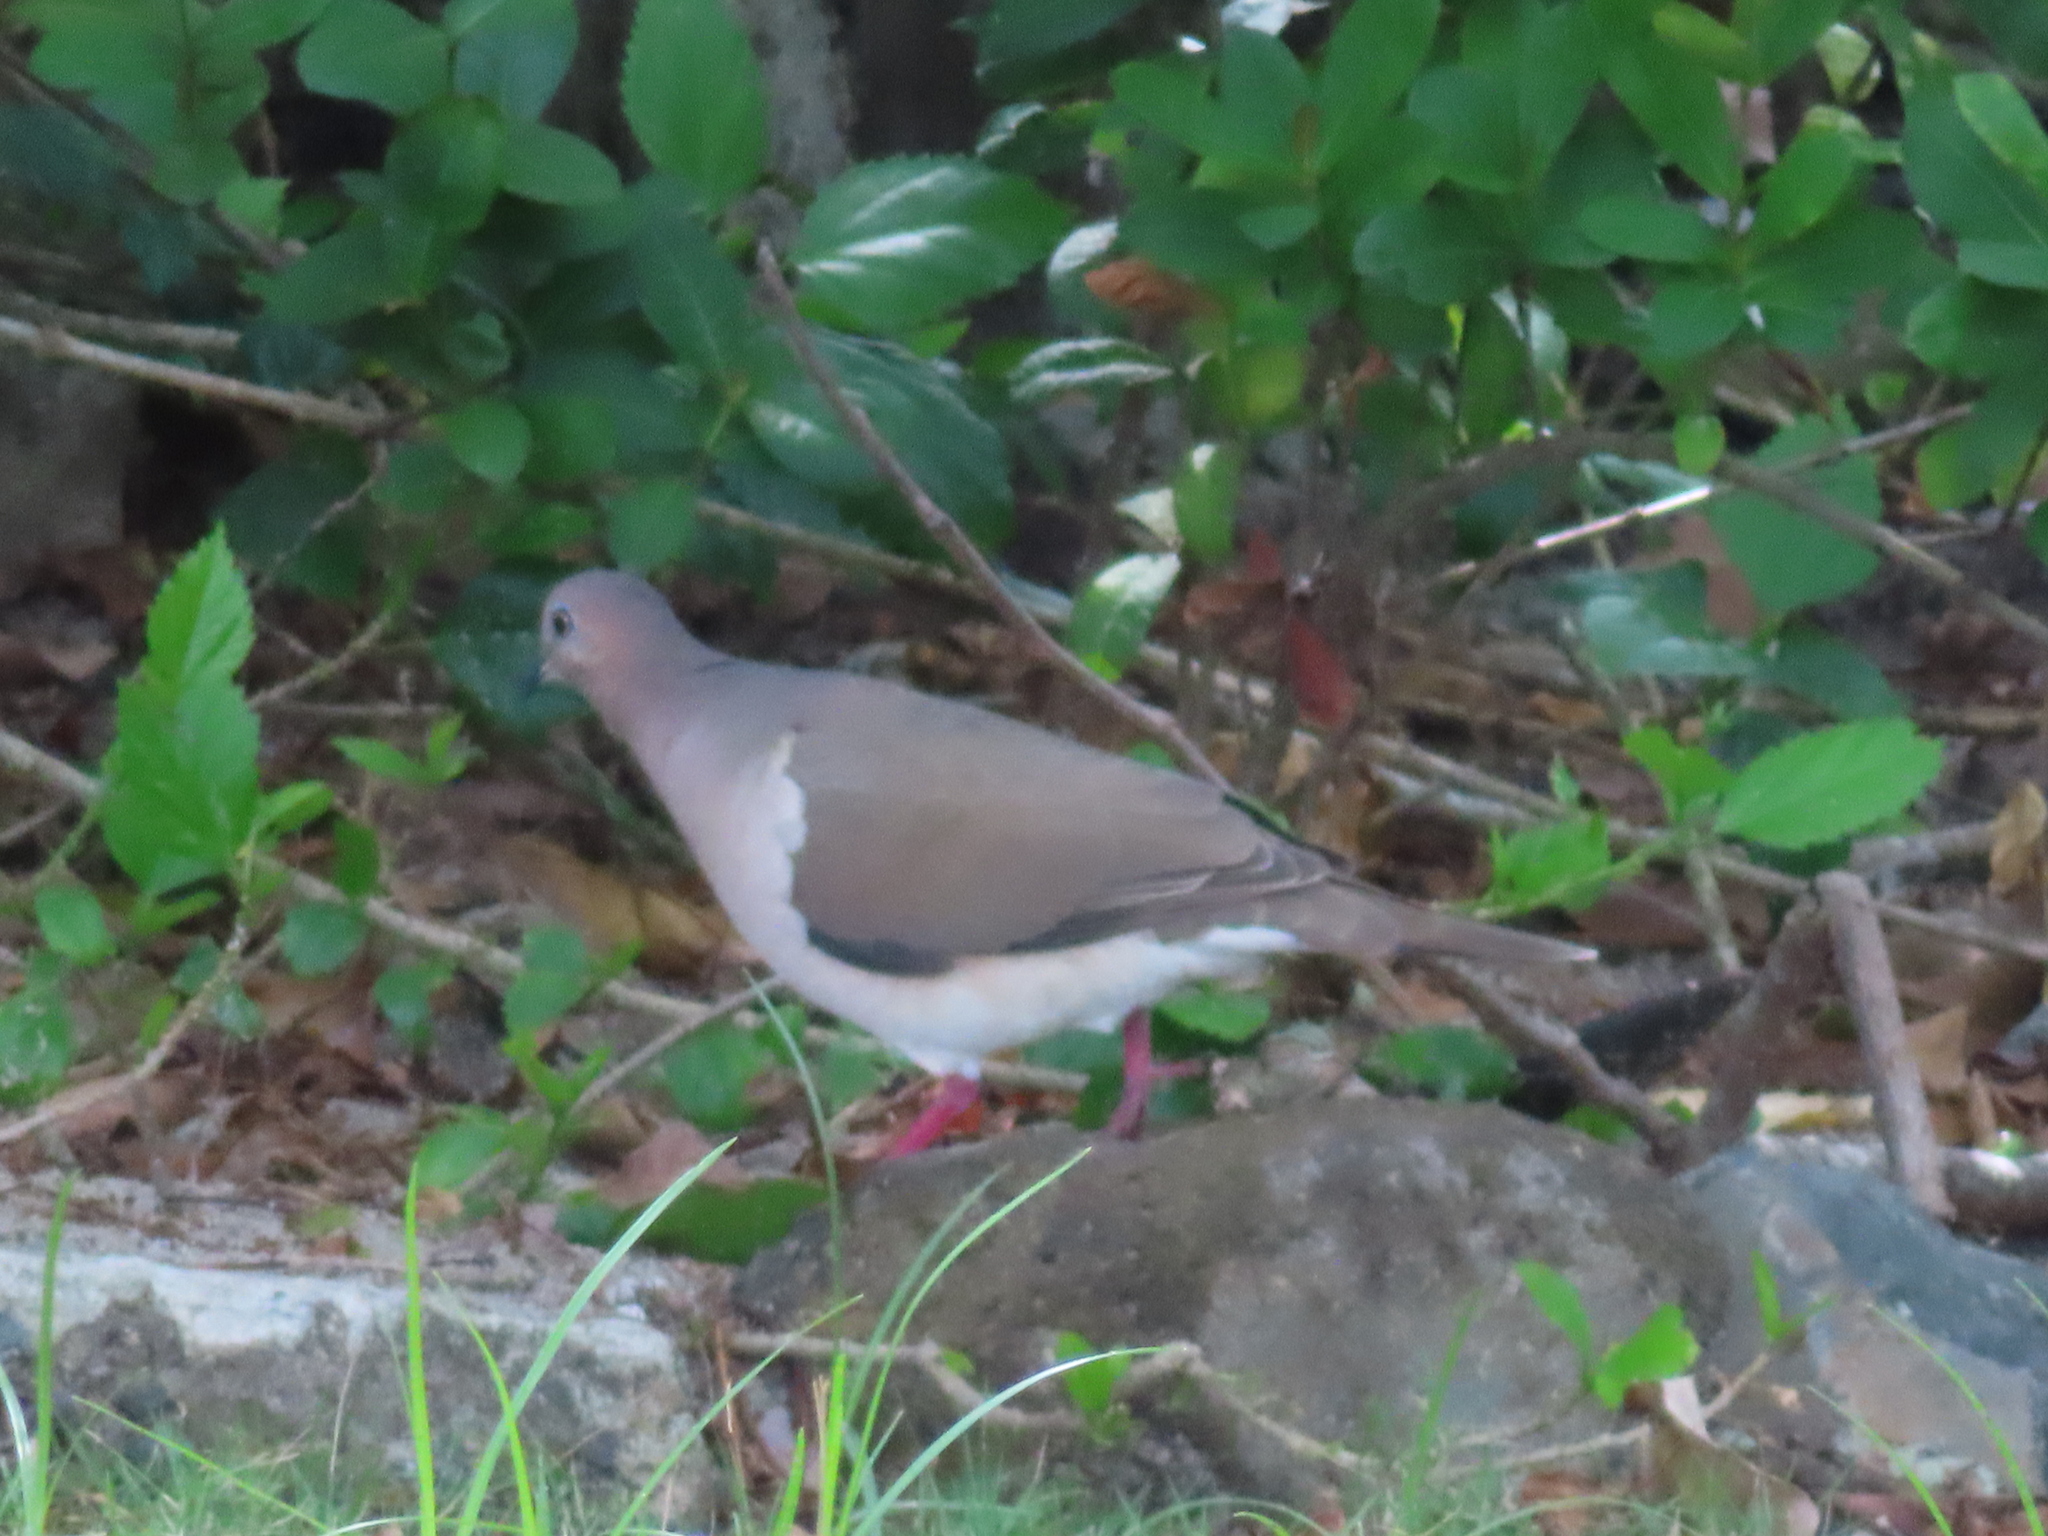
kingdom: Animalia
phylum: Chordata
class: Aves
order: Columbiformes
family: Columbidae
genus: Leptotila
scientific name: Leptotila verreauxi
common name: White-tipped dove
